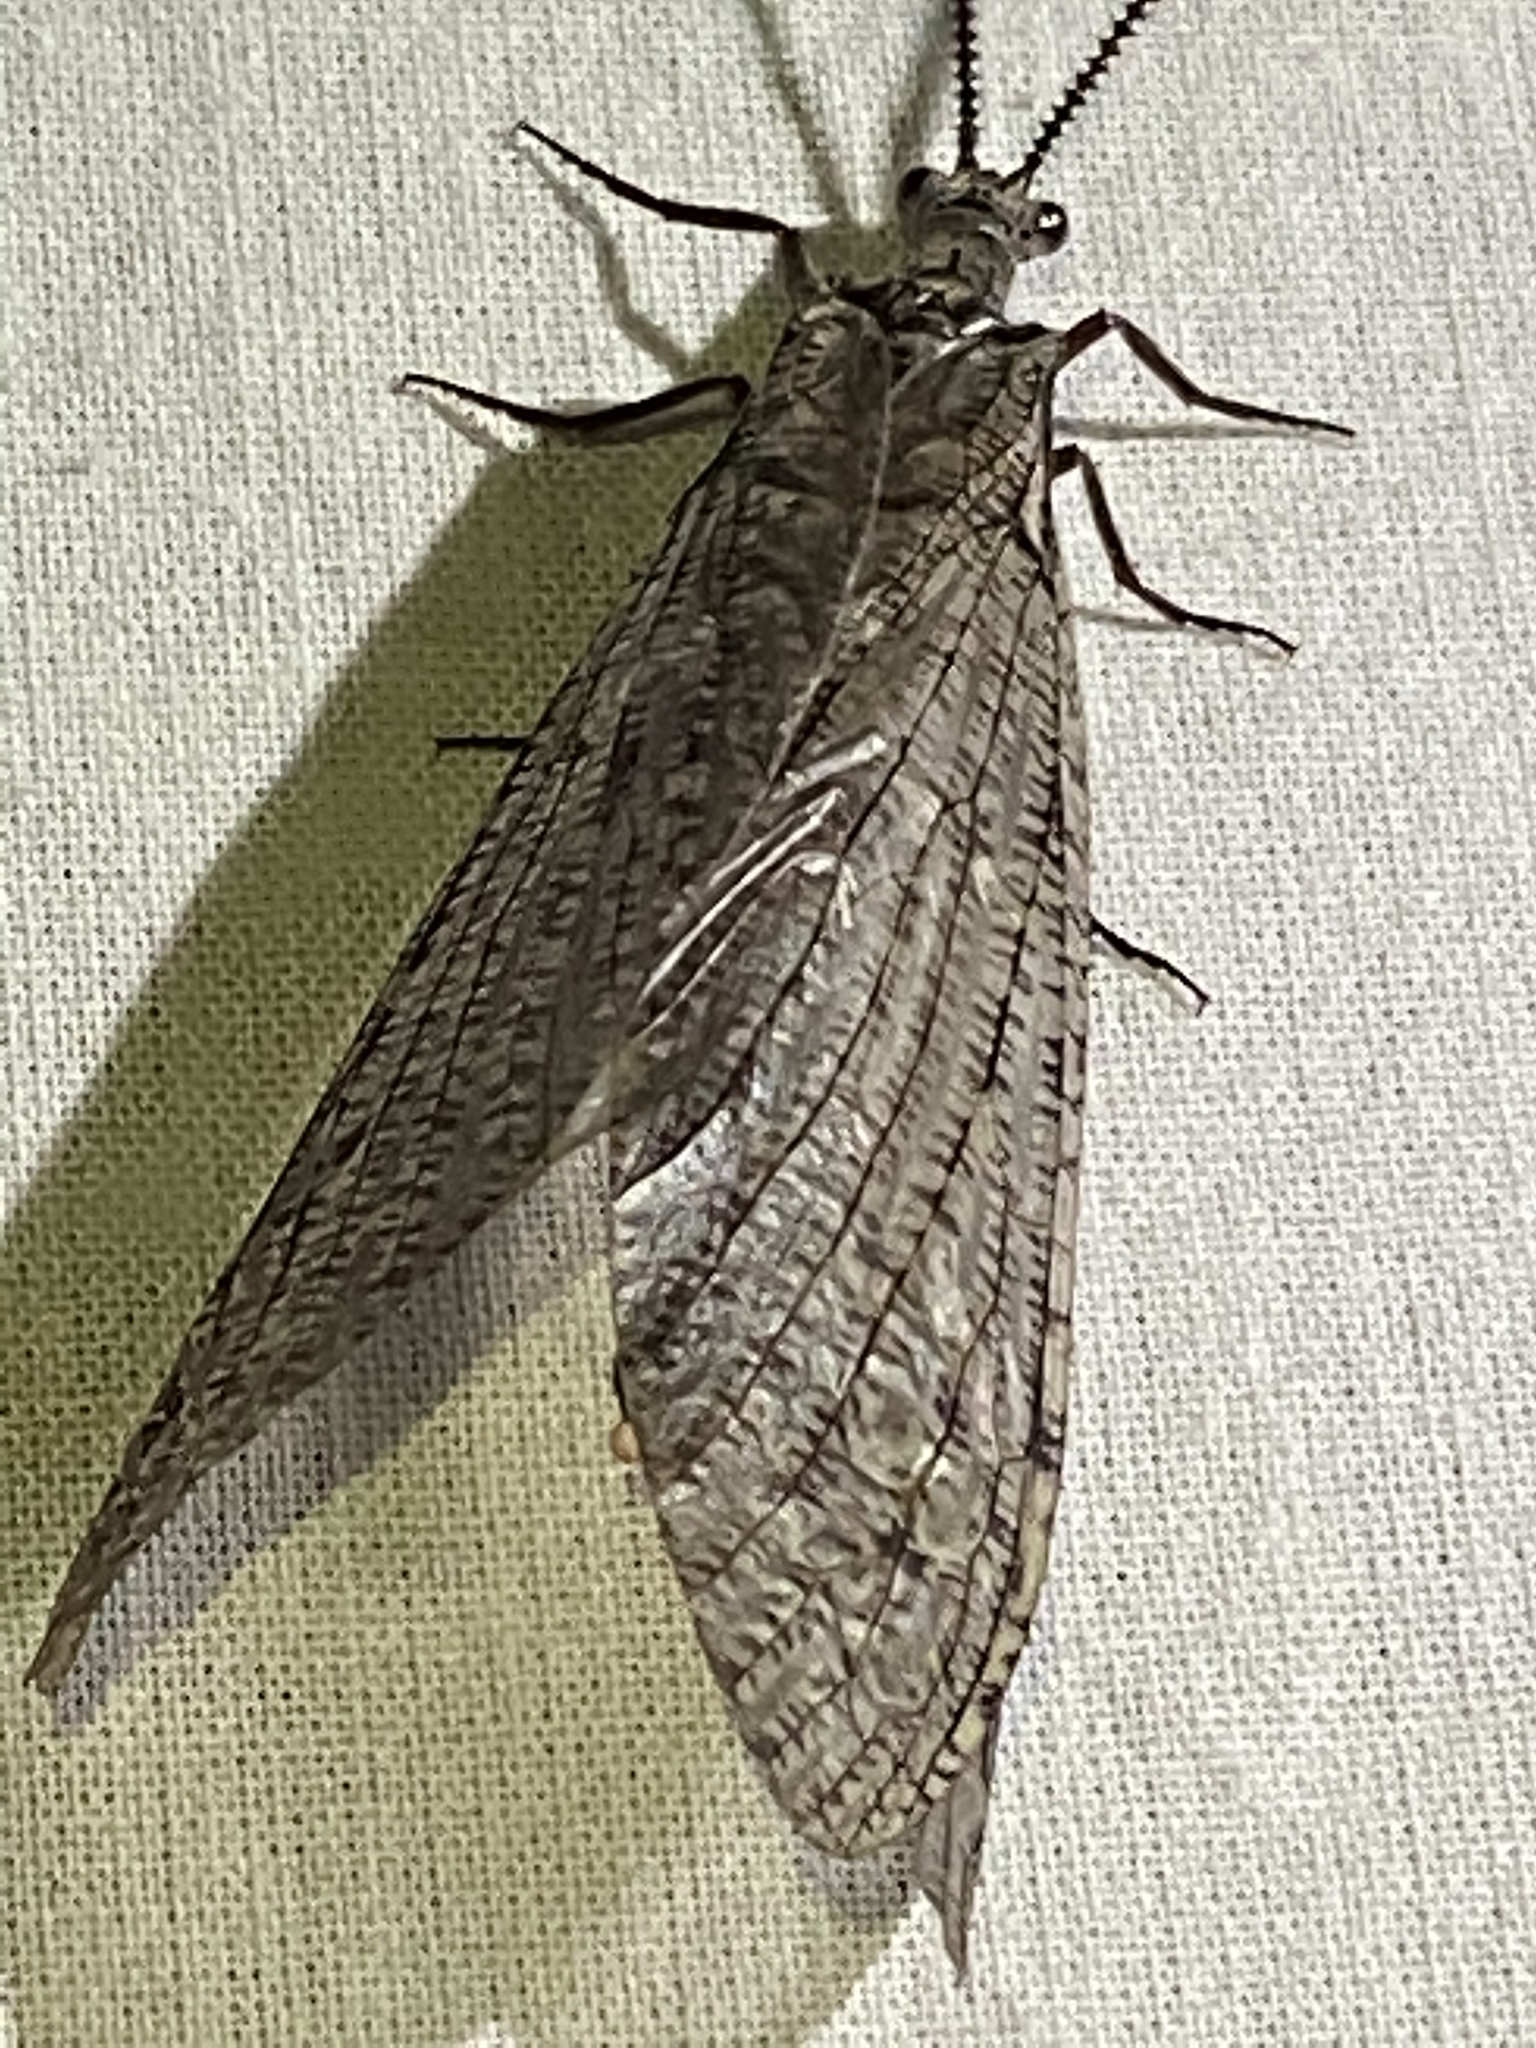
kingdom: Animalia
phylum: Arthropoda
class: Insecta
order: Megaloptera
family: Corydalidae
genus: Neohermes
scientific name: Neohermes californicus
